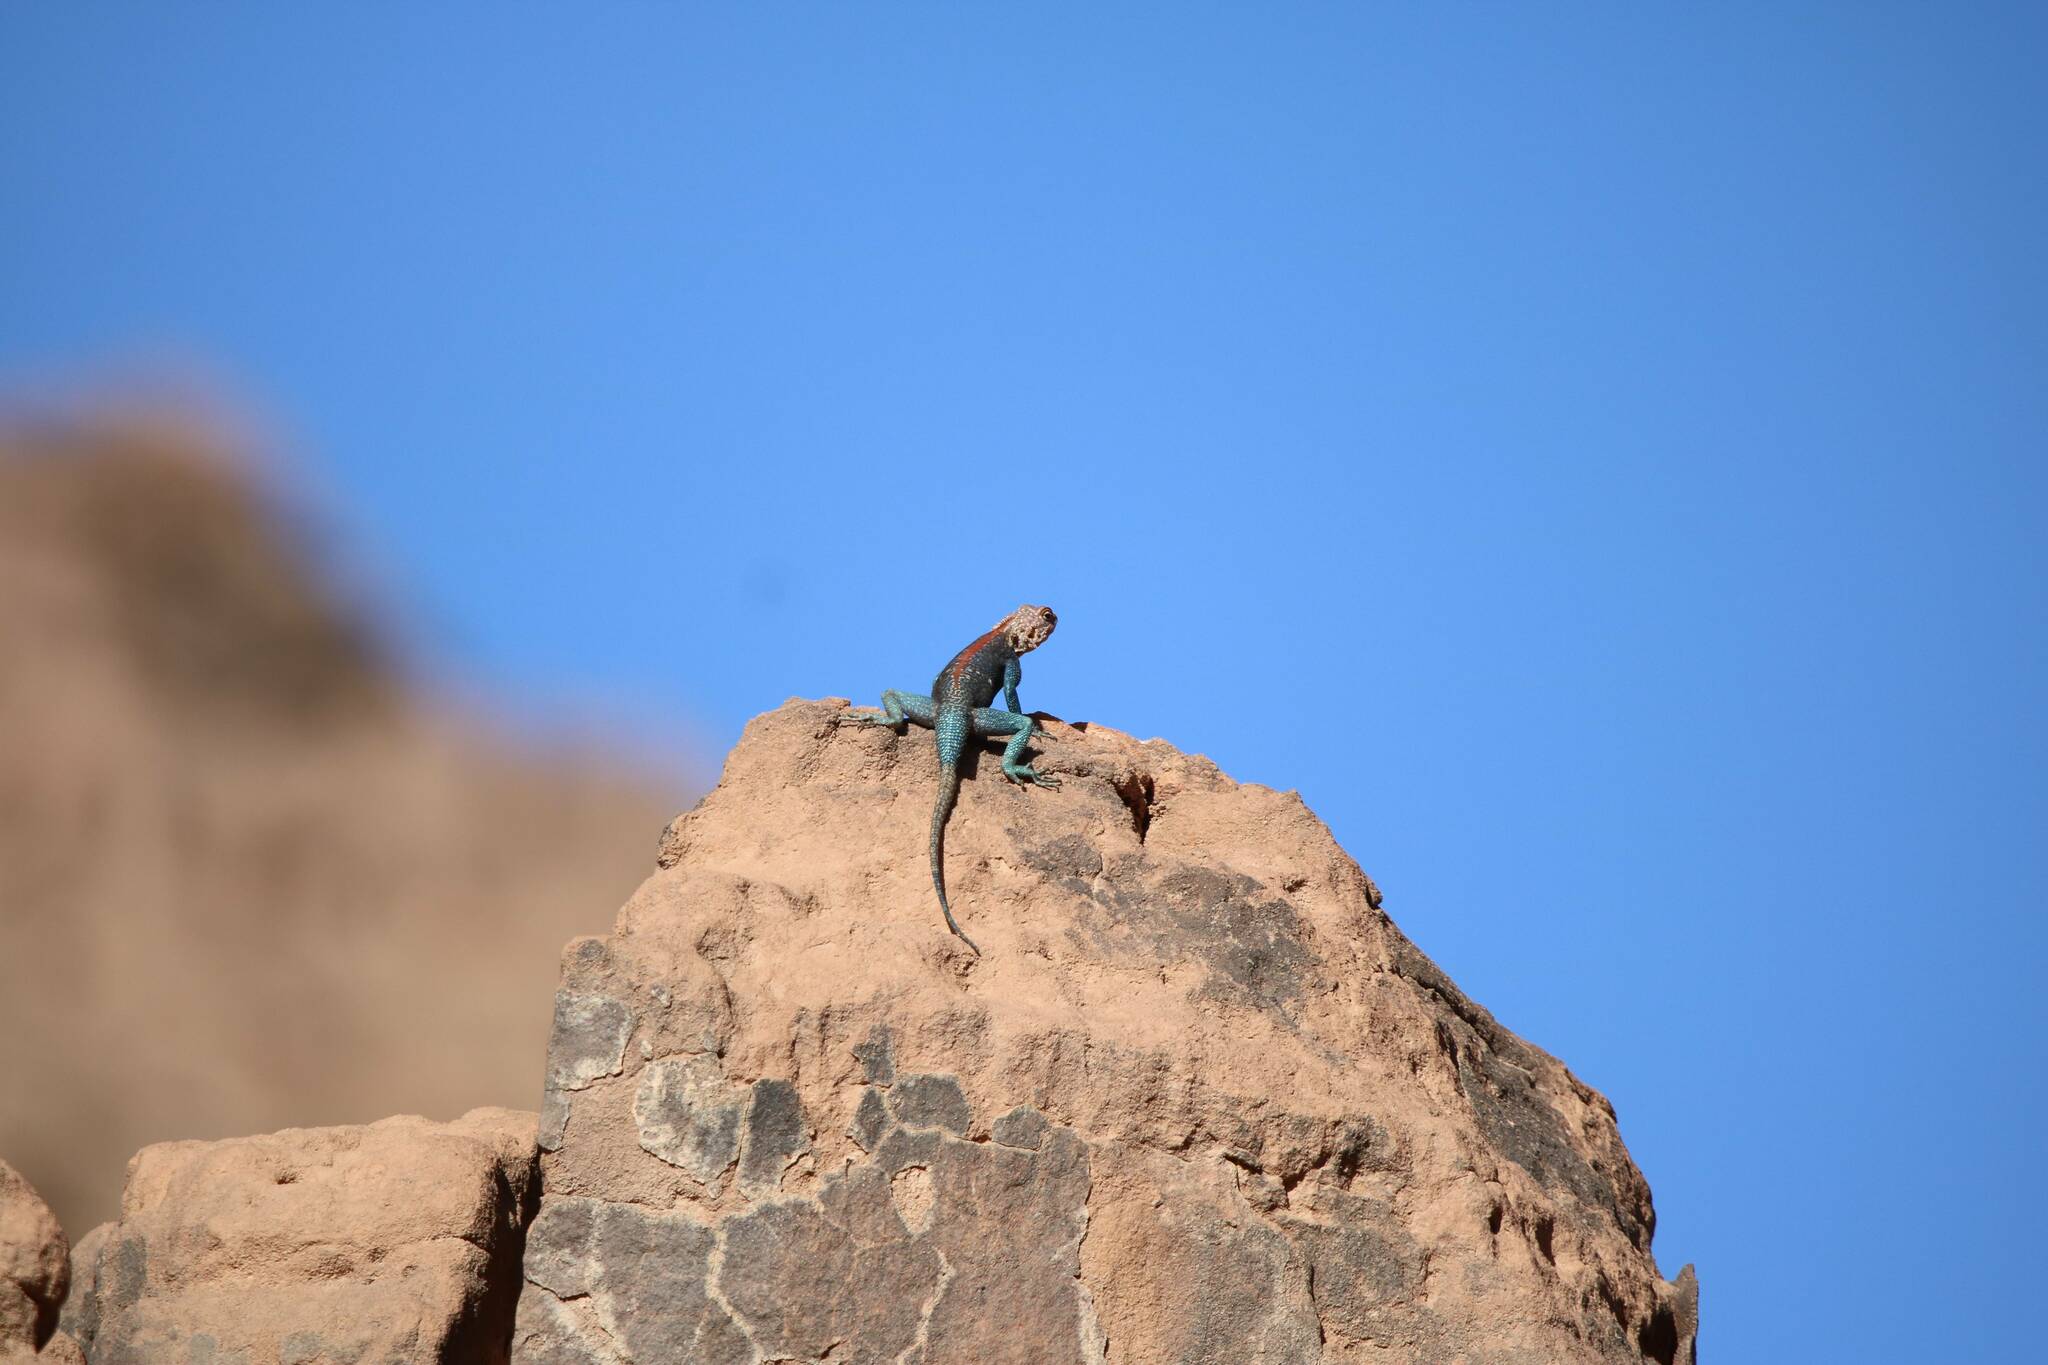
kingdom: Animalia
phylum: Chordata
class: Squamata
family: Agamidae
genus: Agama
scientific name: Agama tassiliensis
